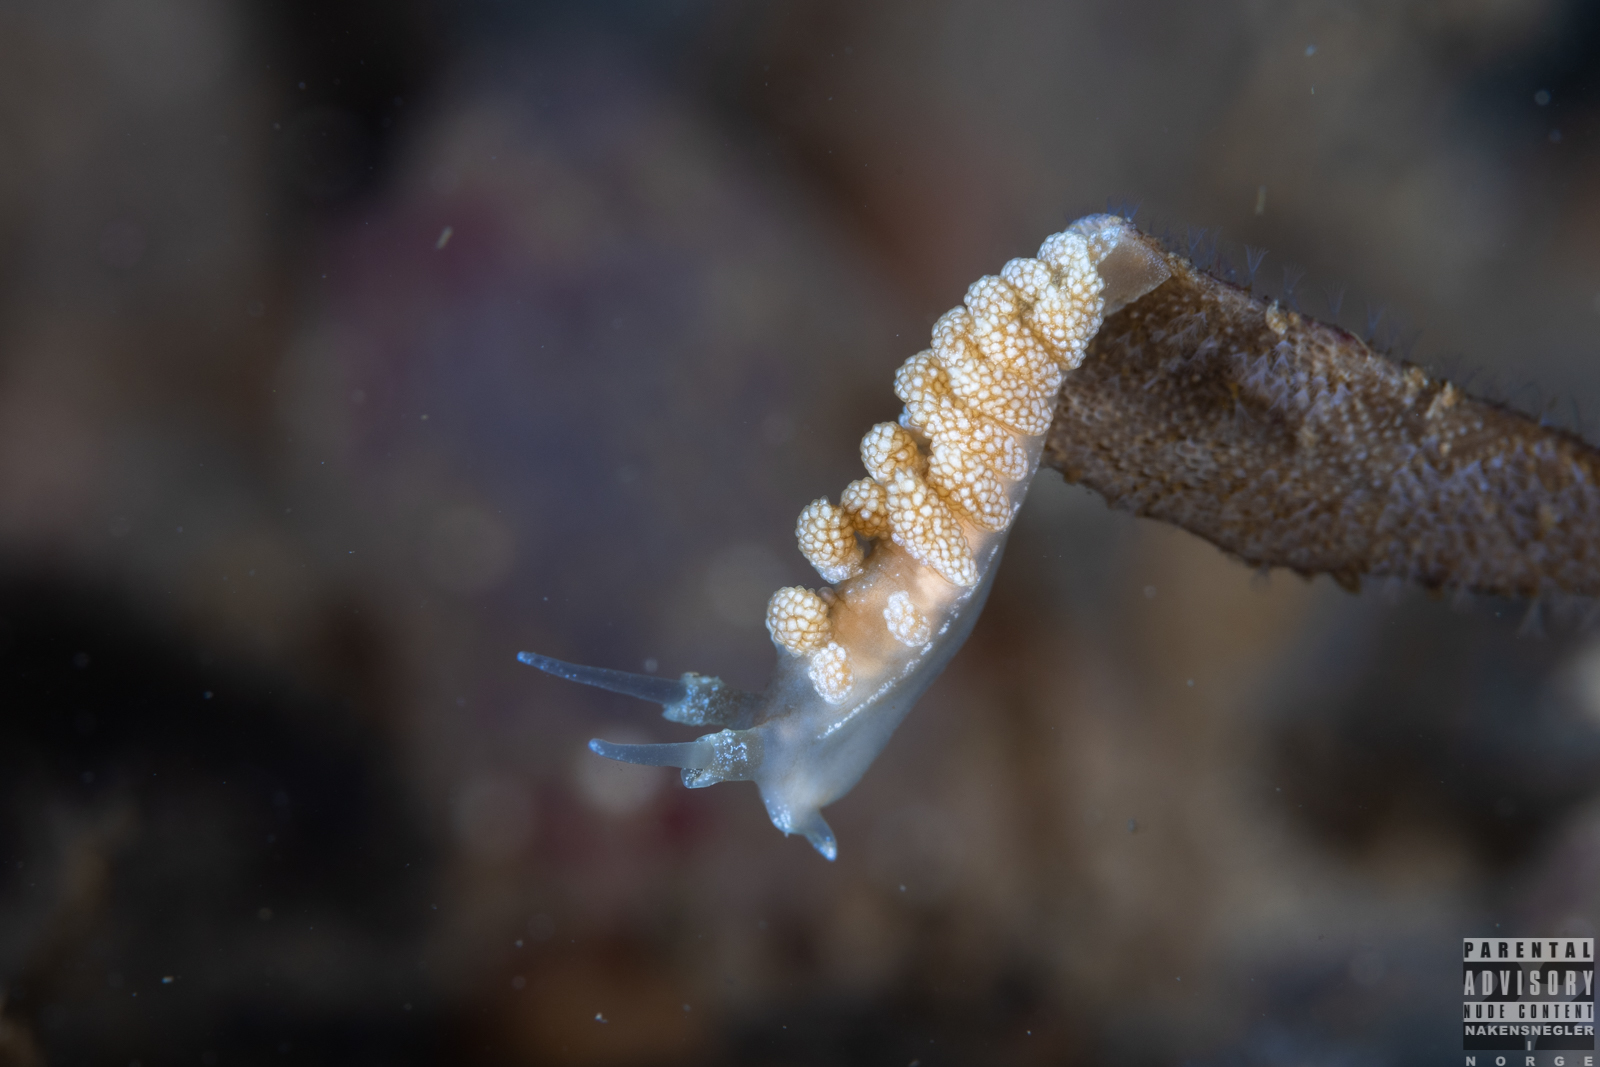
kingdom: Animalia
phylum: Mollusca
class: Gastropoda
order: Nudibranchia
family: Dotidae
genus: Doto
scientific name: Doto fragilis
